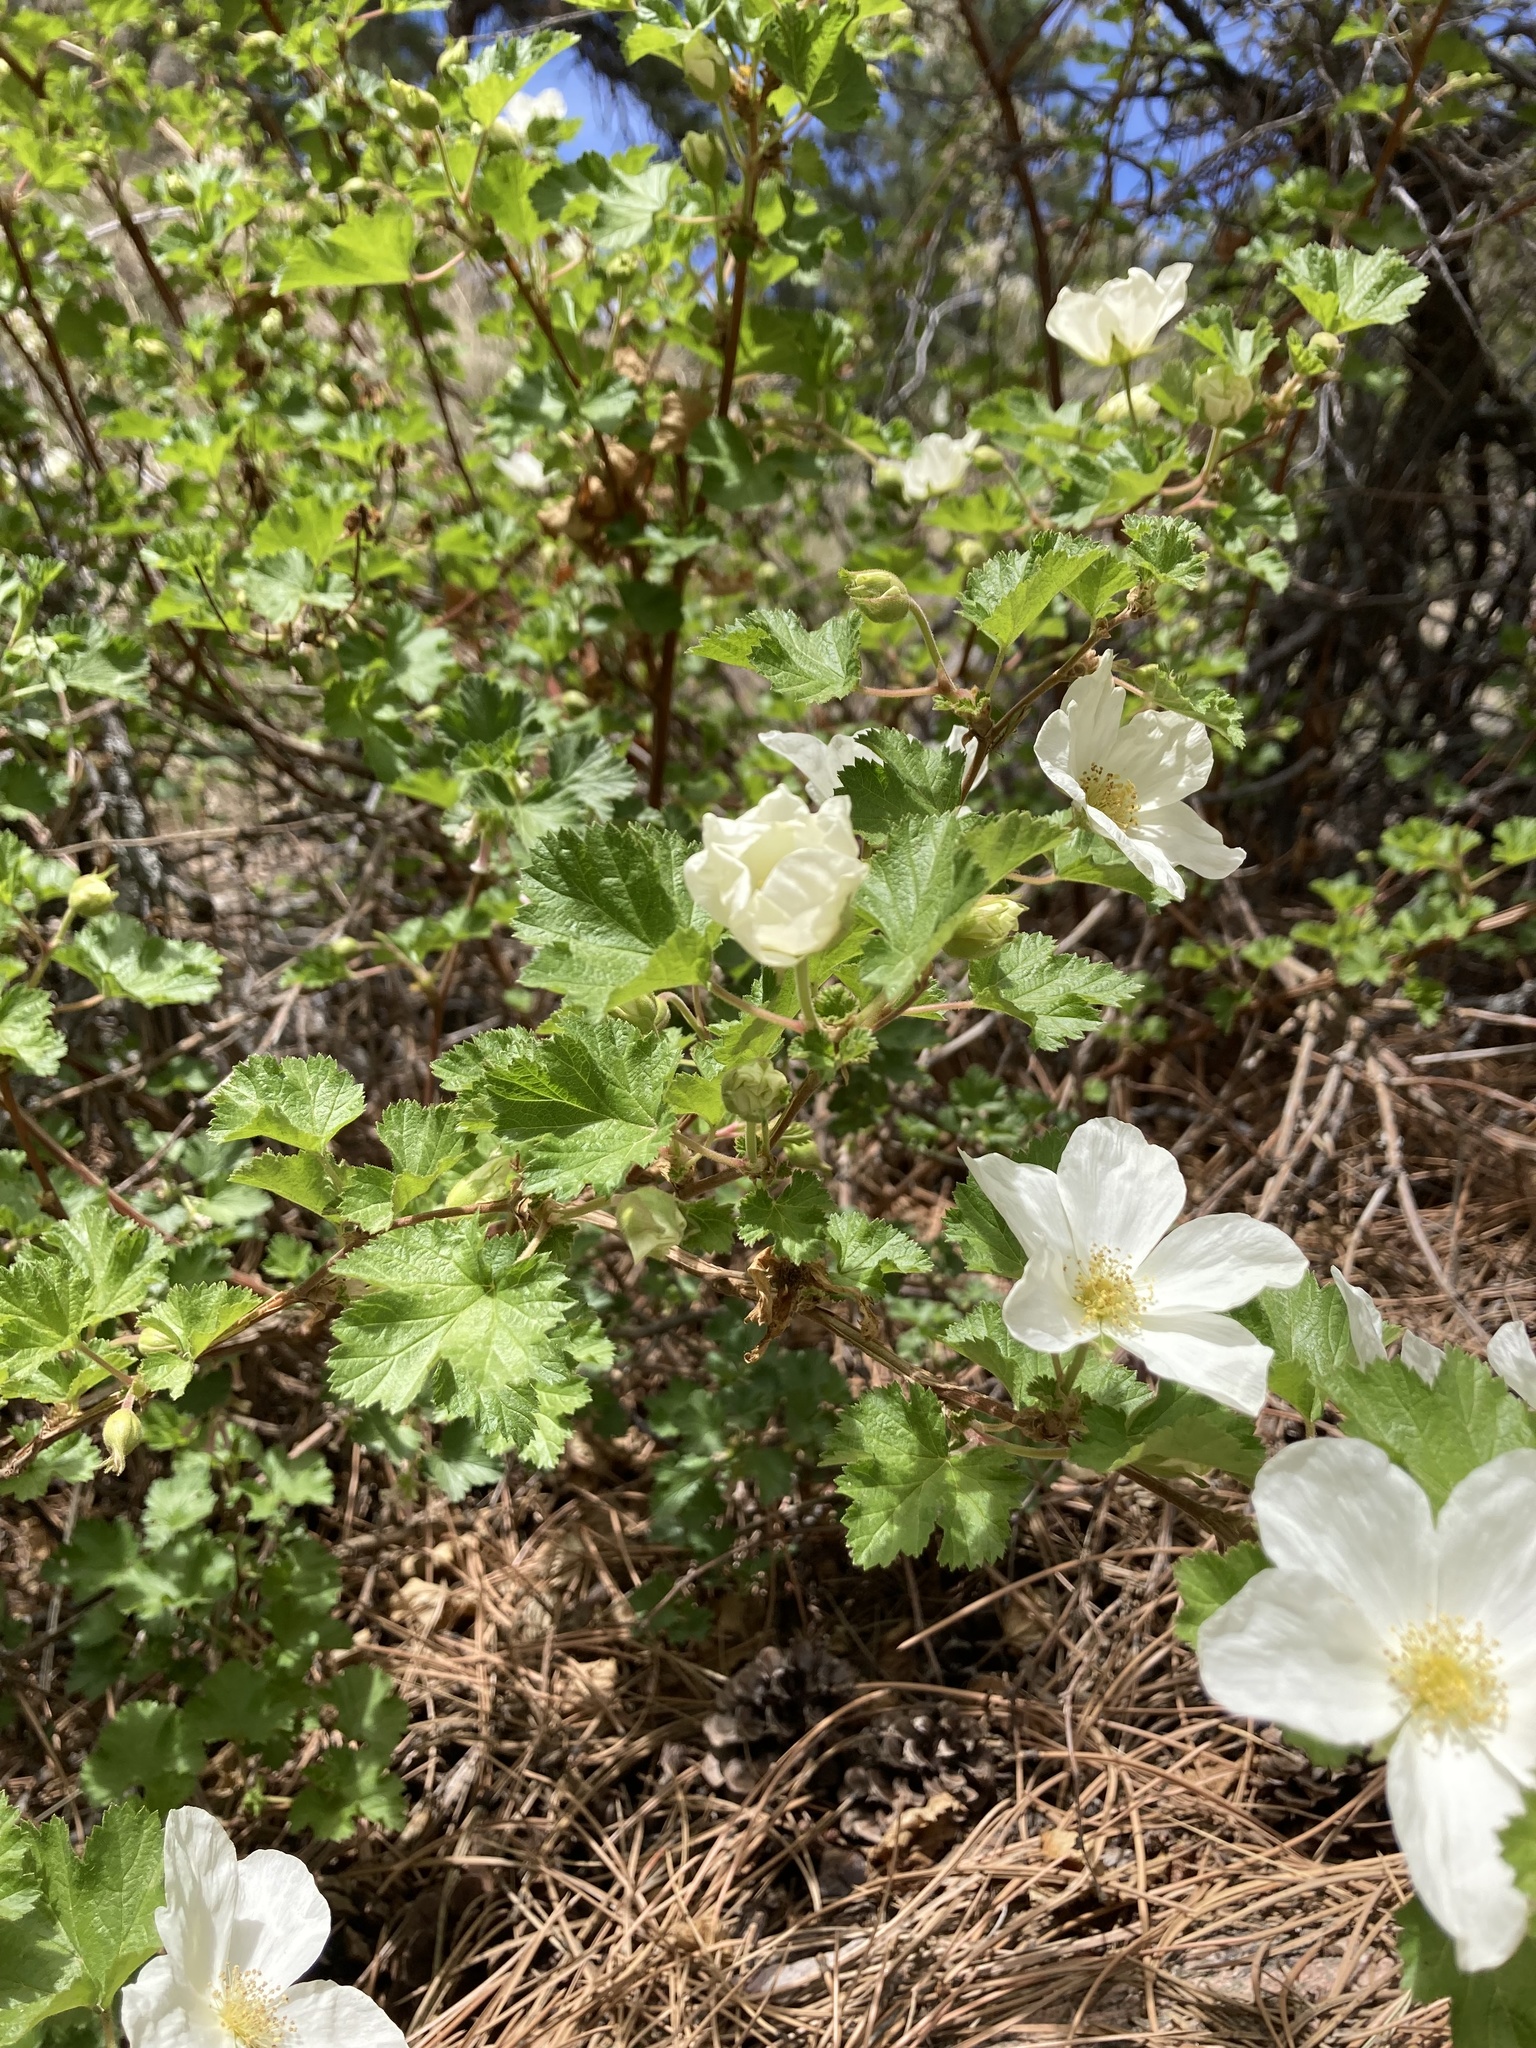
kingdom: Plantae
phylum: Tracheophyta
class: Magnoliopsida
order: Rosales
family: Rosaceae
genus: Rubus
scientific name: Rubus deliciosus
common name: Rocky mountain raspberry
